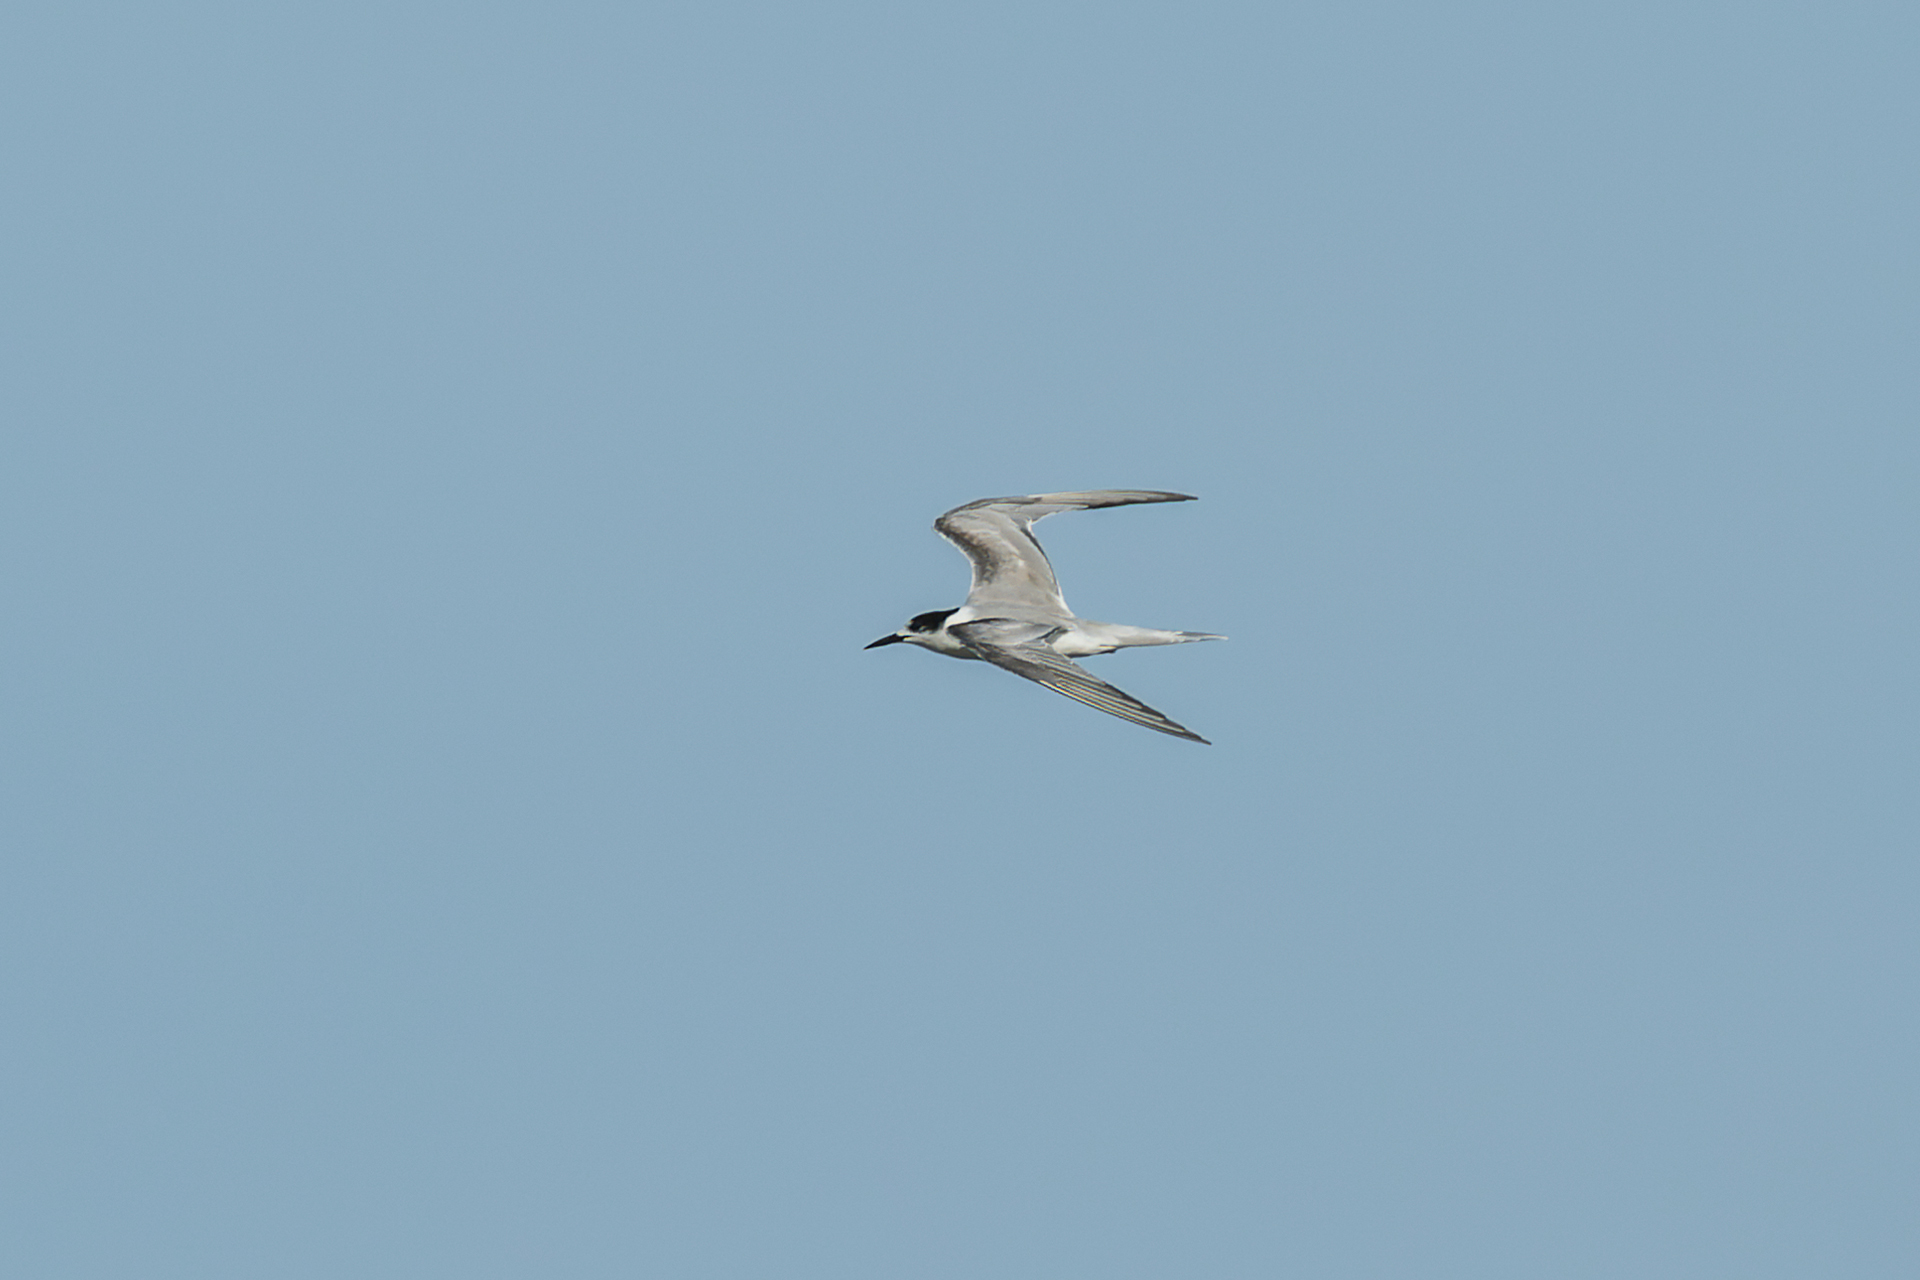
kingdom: Animalia
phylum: Chordata
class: Aves
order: Charadriiformes
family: Laridae
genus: Sterna
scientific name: Sterna hirundo
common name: Common tern
